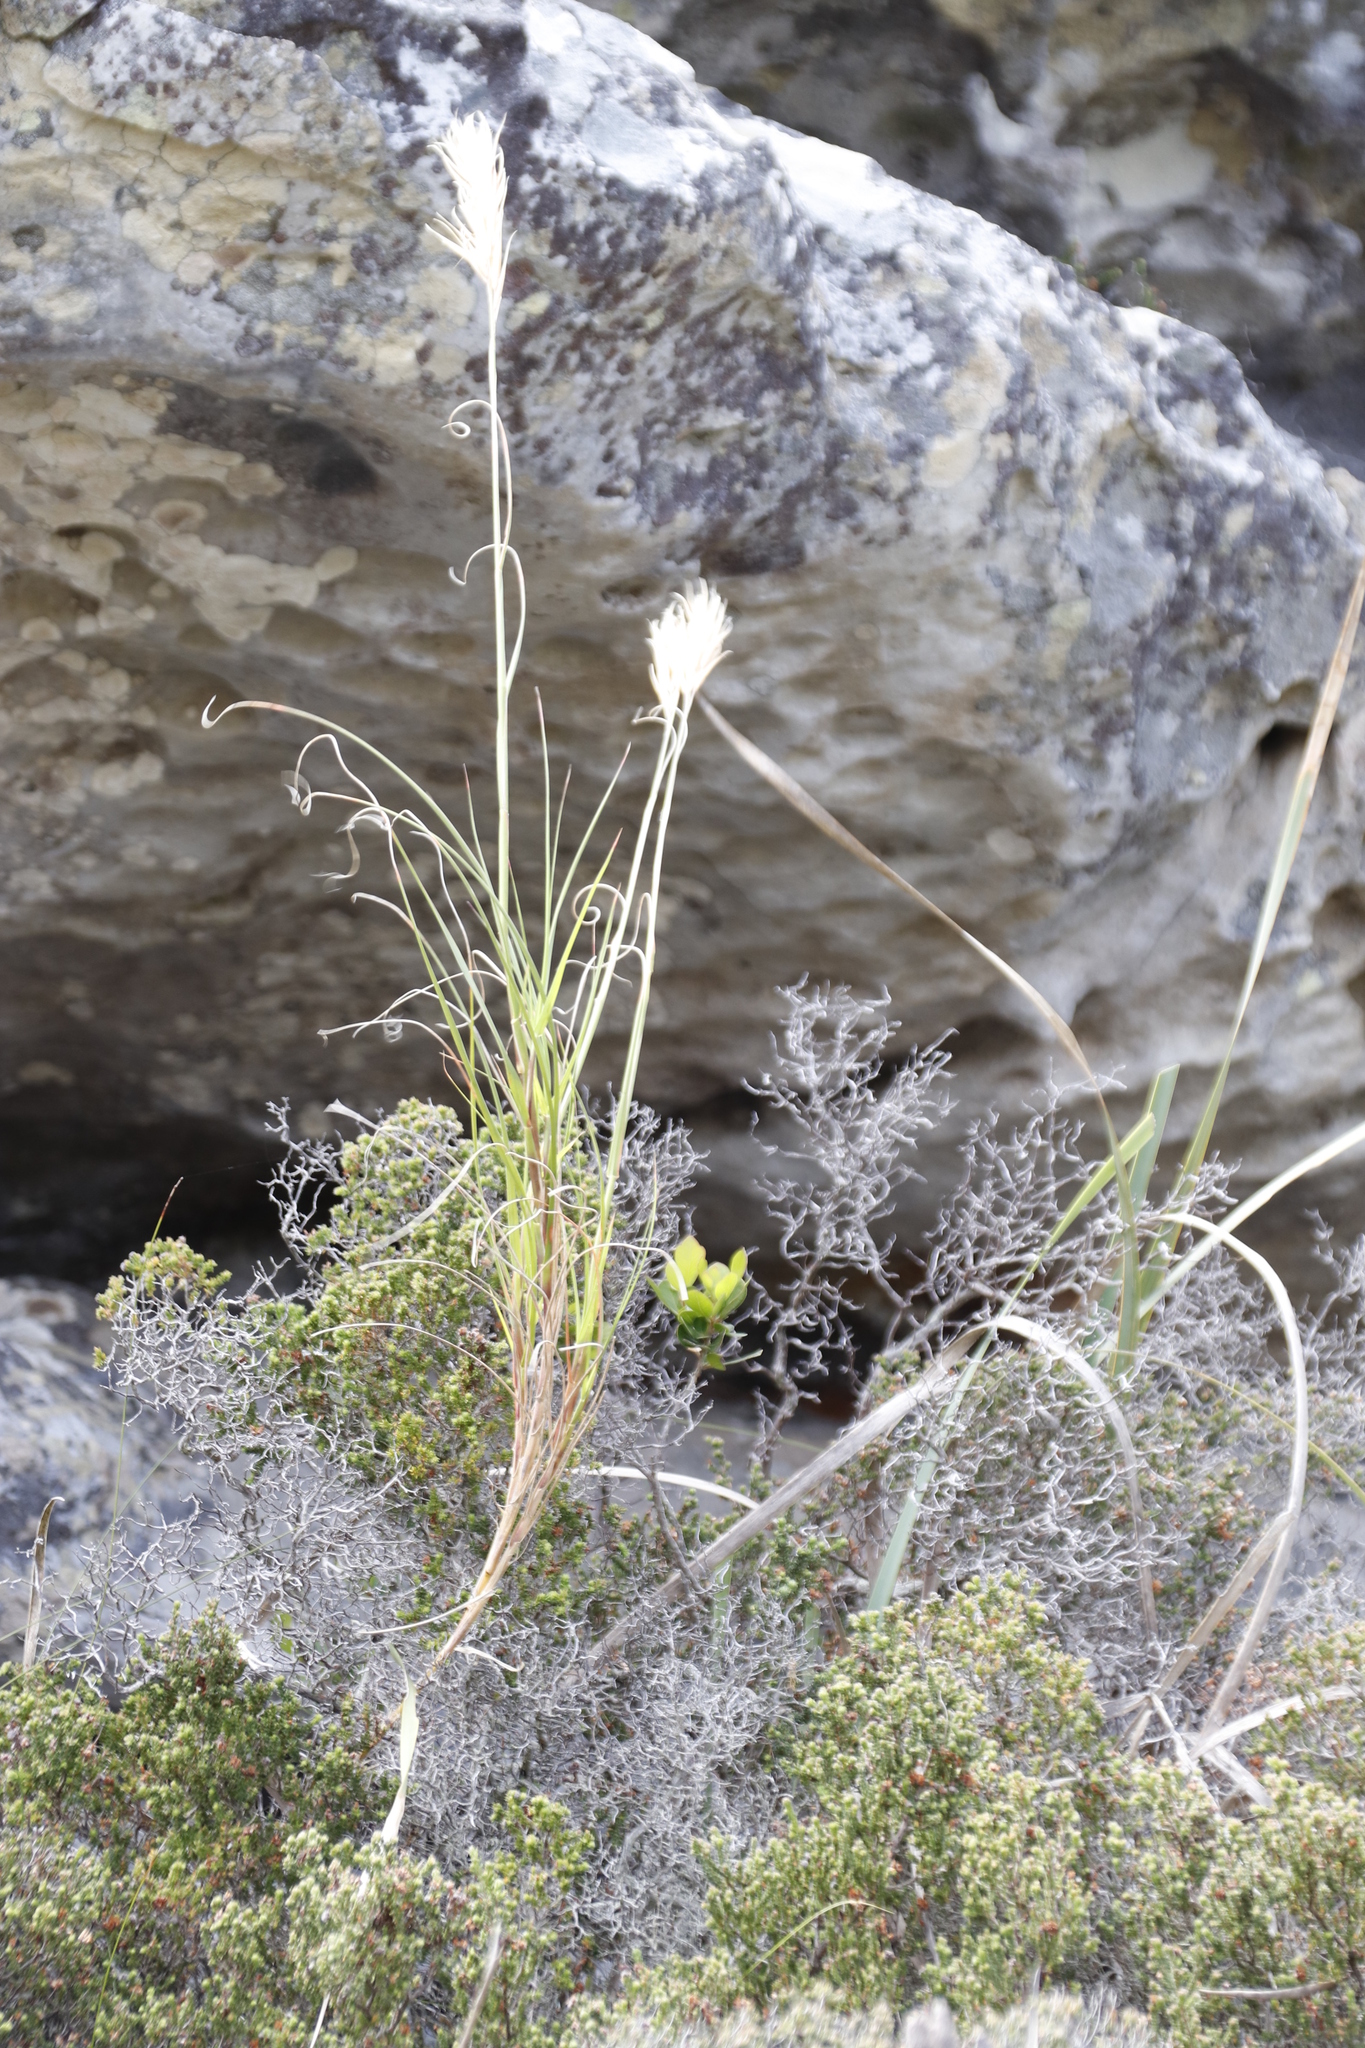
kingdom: Plantae
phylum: Tracheophyta
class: Liliopsida
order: Poales
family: Poaceae
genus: Pseudopentameris
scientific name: Pseudopentameris macrantha
